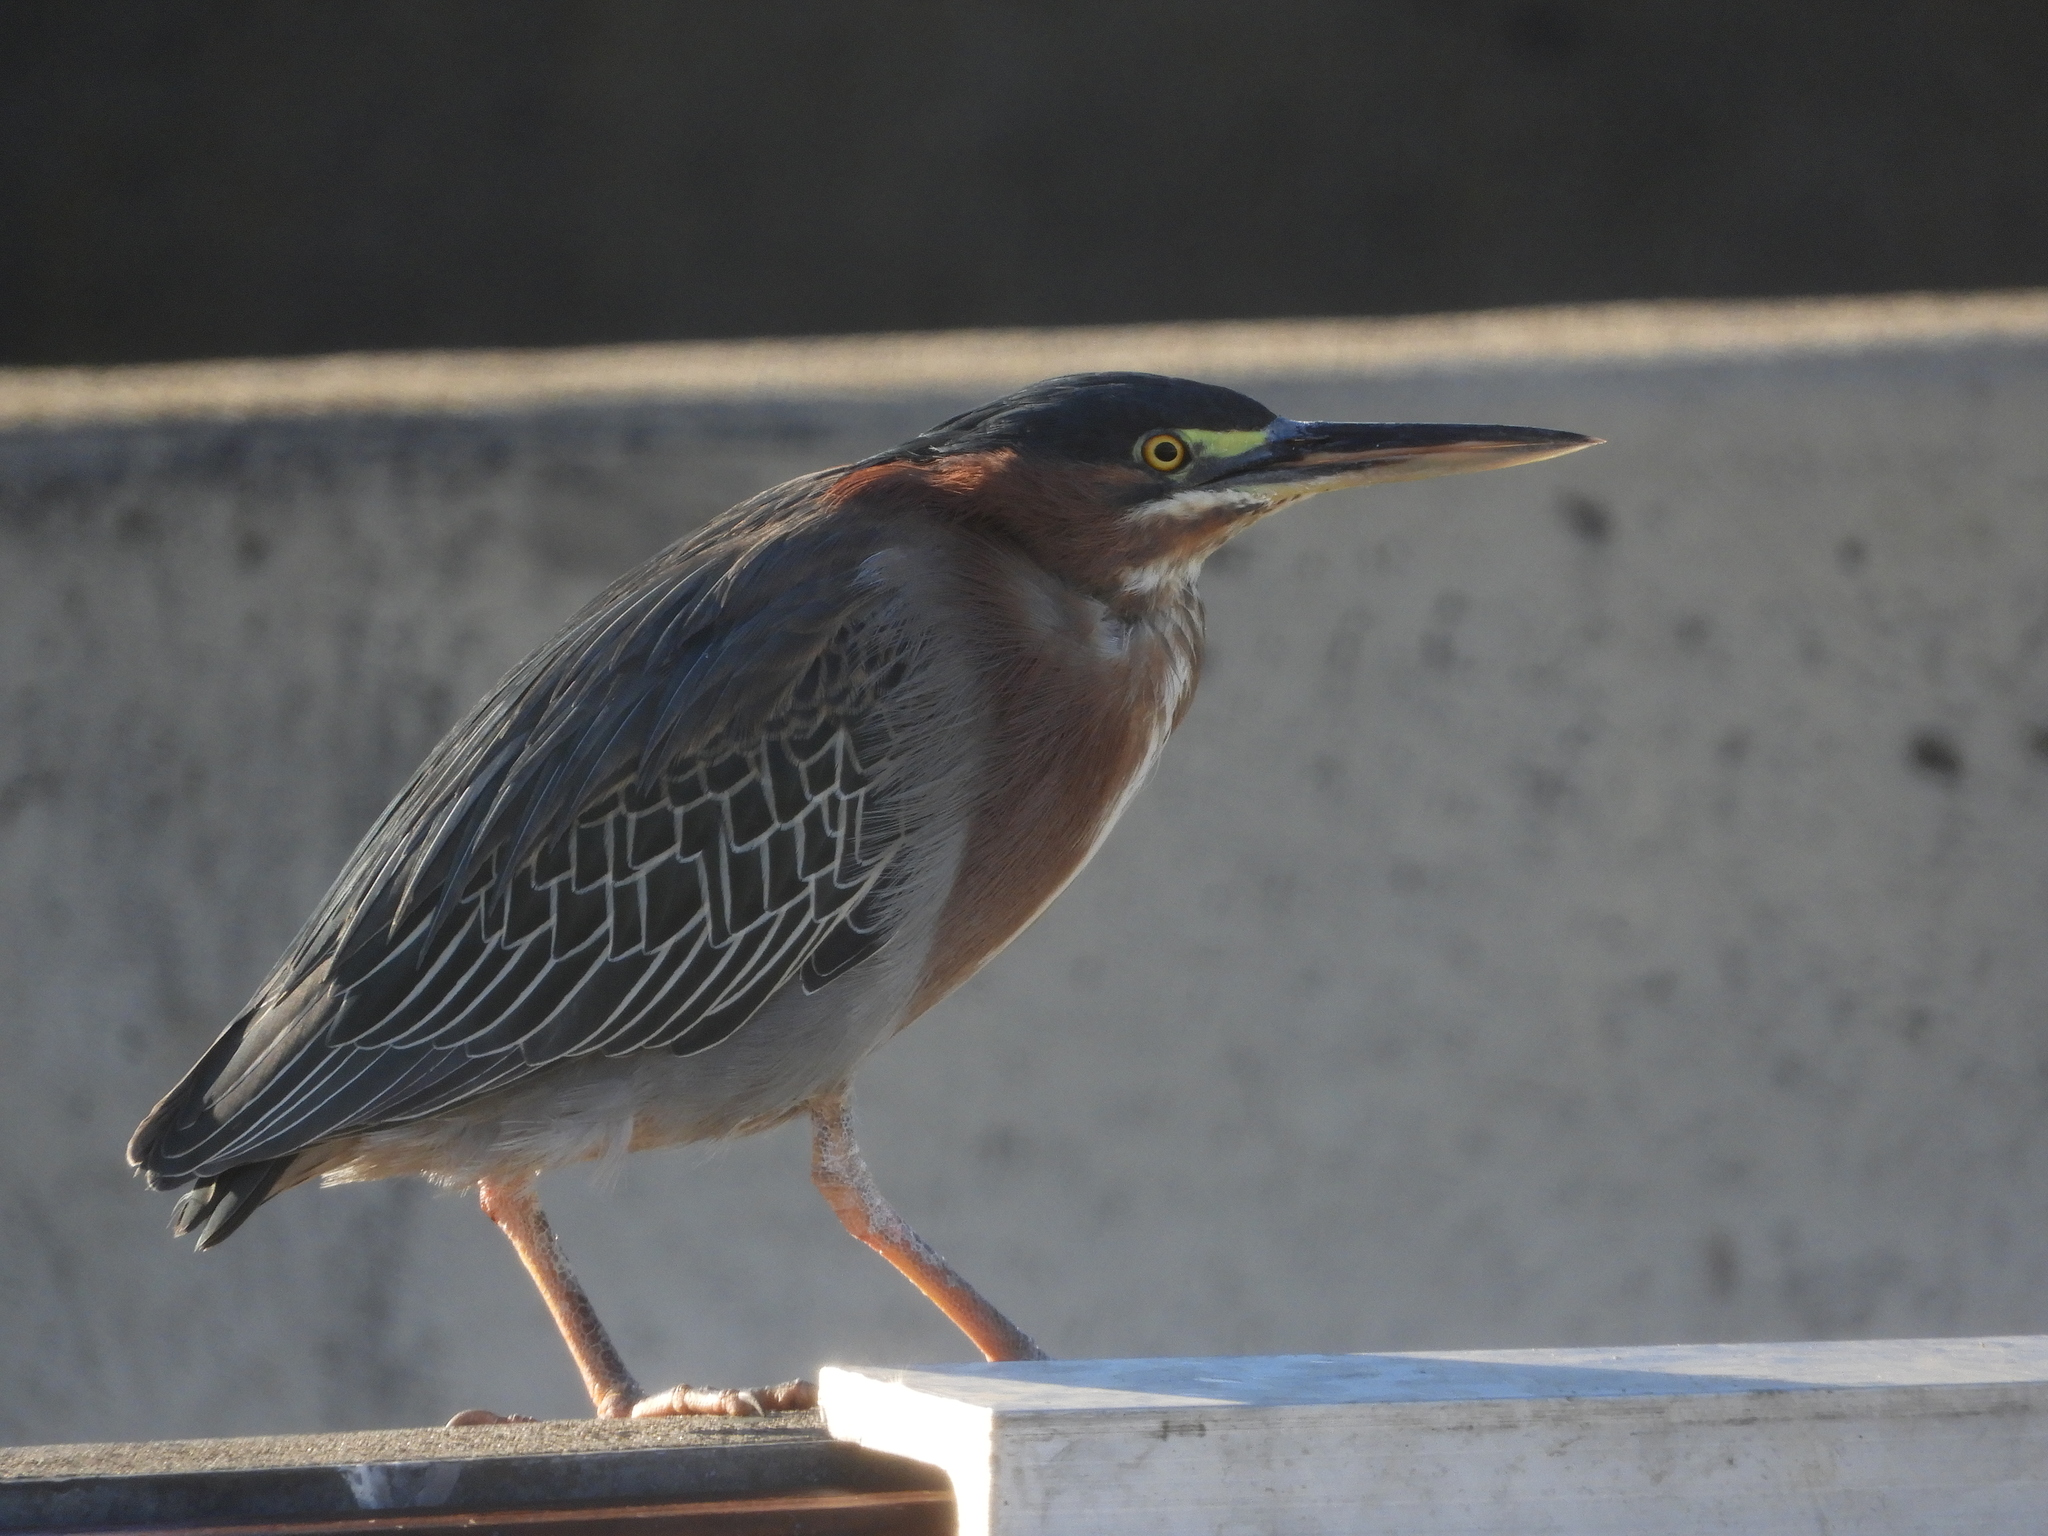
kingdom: Animalia
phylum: Chordata
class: Aves
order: Pelecaniformes
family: Ardeidae
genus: Butorides
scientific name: Butorides virescens
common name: Green heron
